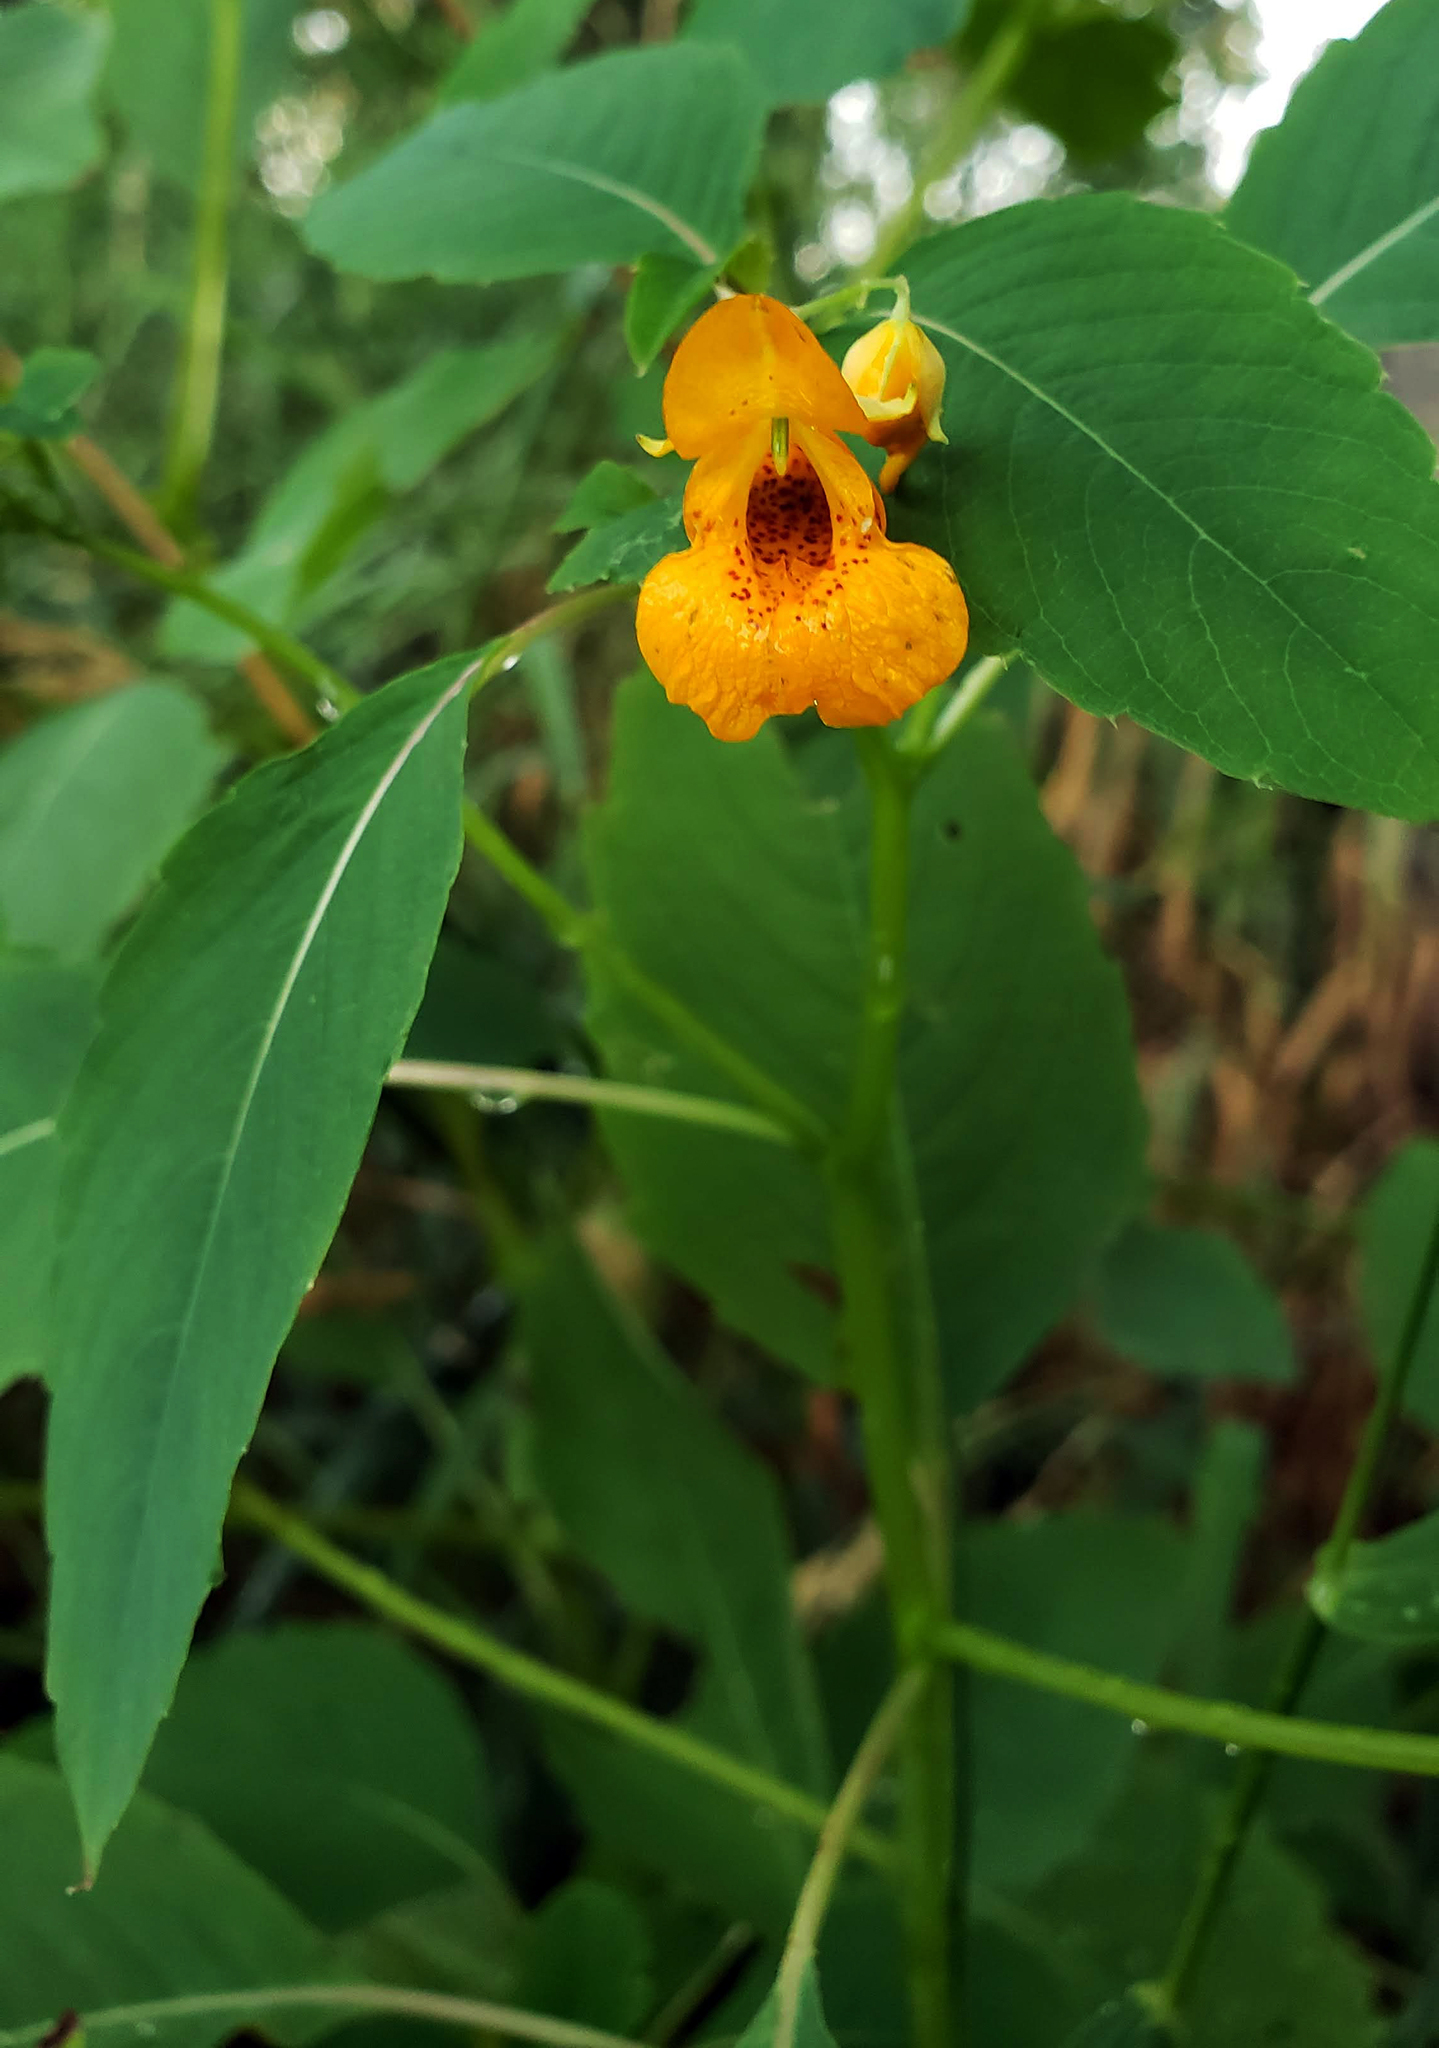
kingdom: Plantae
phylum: Tracheophyta
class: Magnoliopsida
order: Ericales
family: Balsaminaceae
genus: Impatiens
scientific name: Impatiens capensis
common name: Orange balsam
